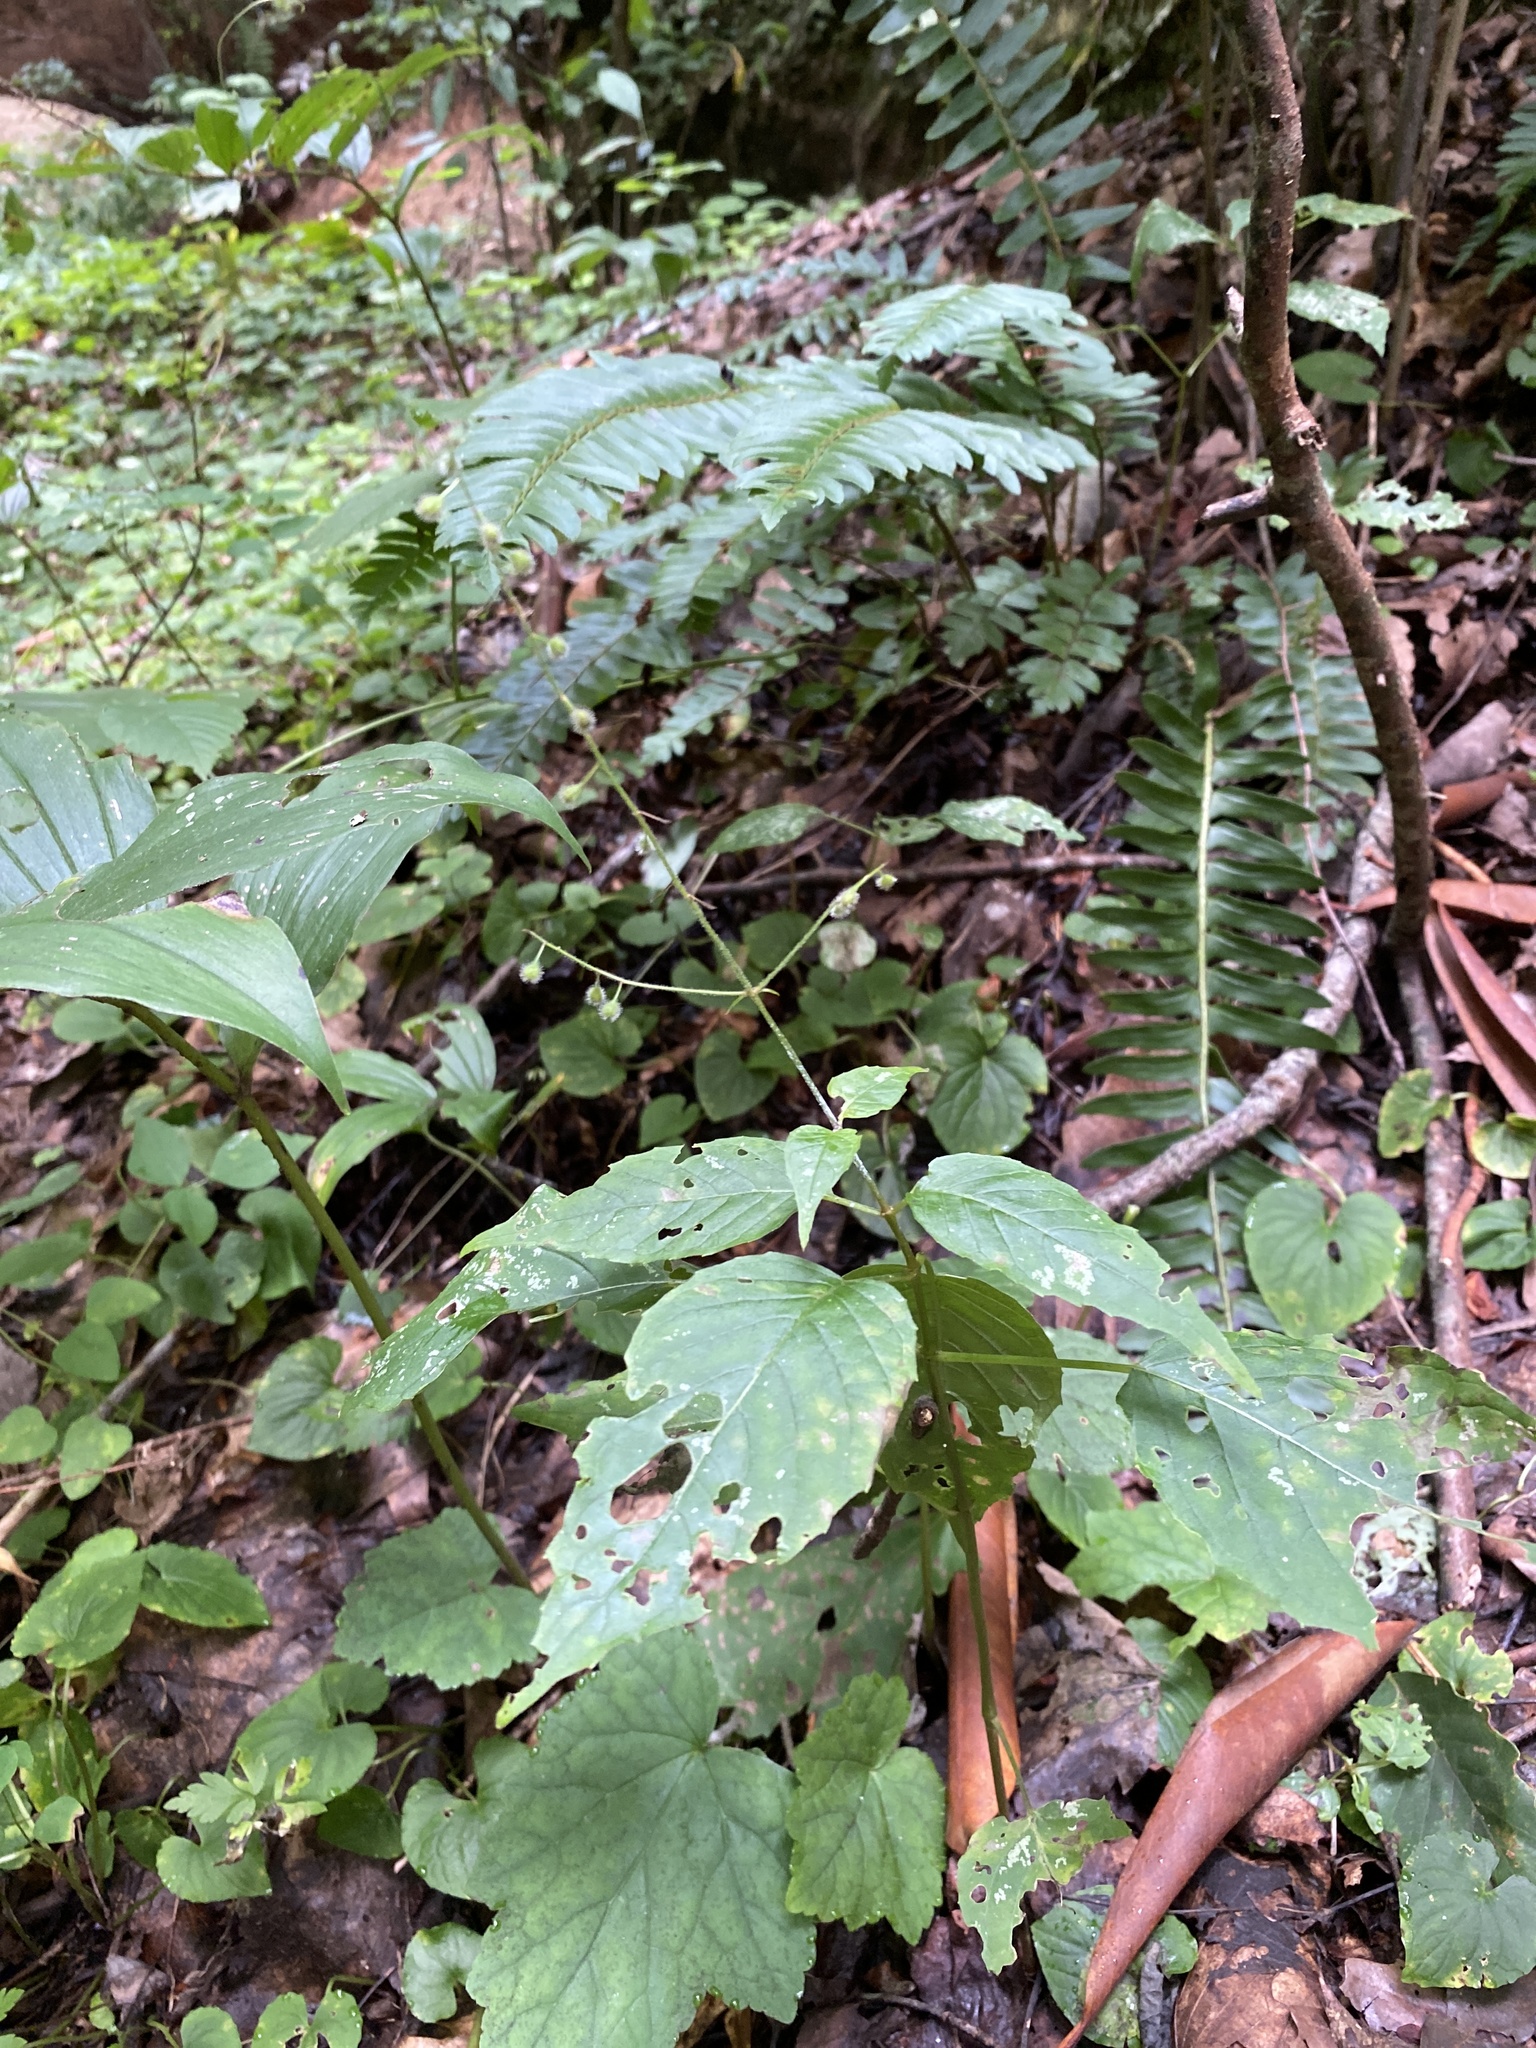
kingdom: Plantae
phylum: Tracheophyta
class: Magnoliopsida
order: Myrtales
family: Onagraceae
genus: Circaea
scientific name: Circaea canadensis
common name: Broad-leaved enchanter's nightshade
